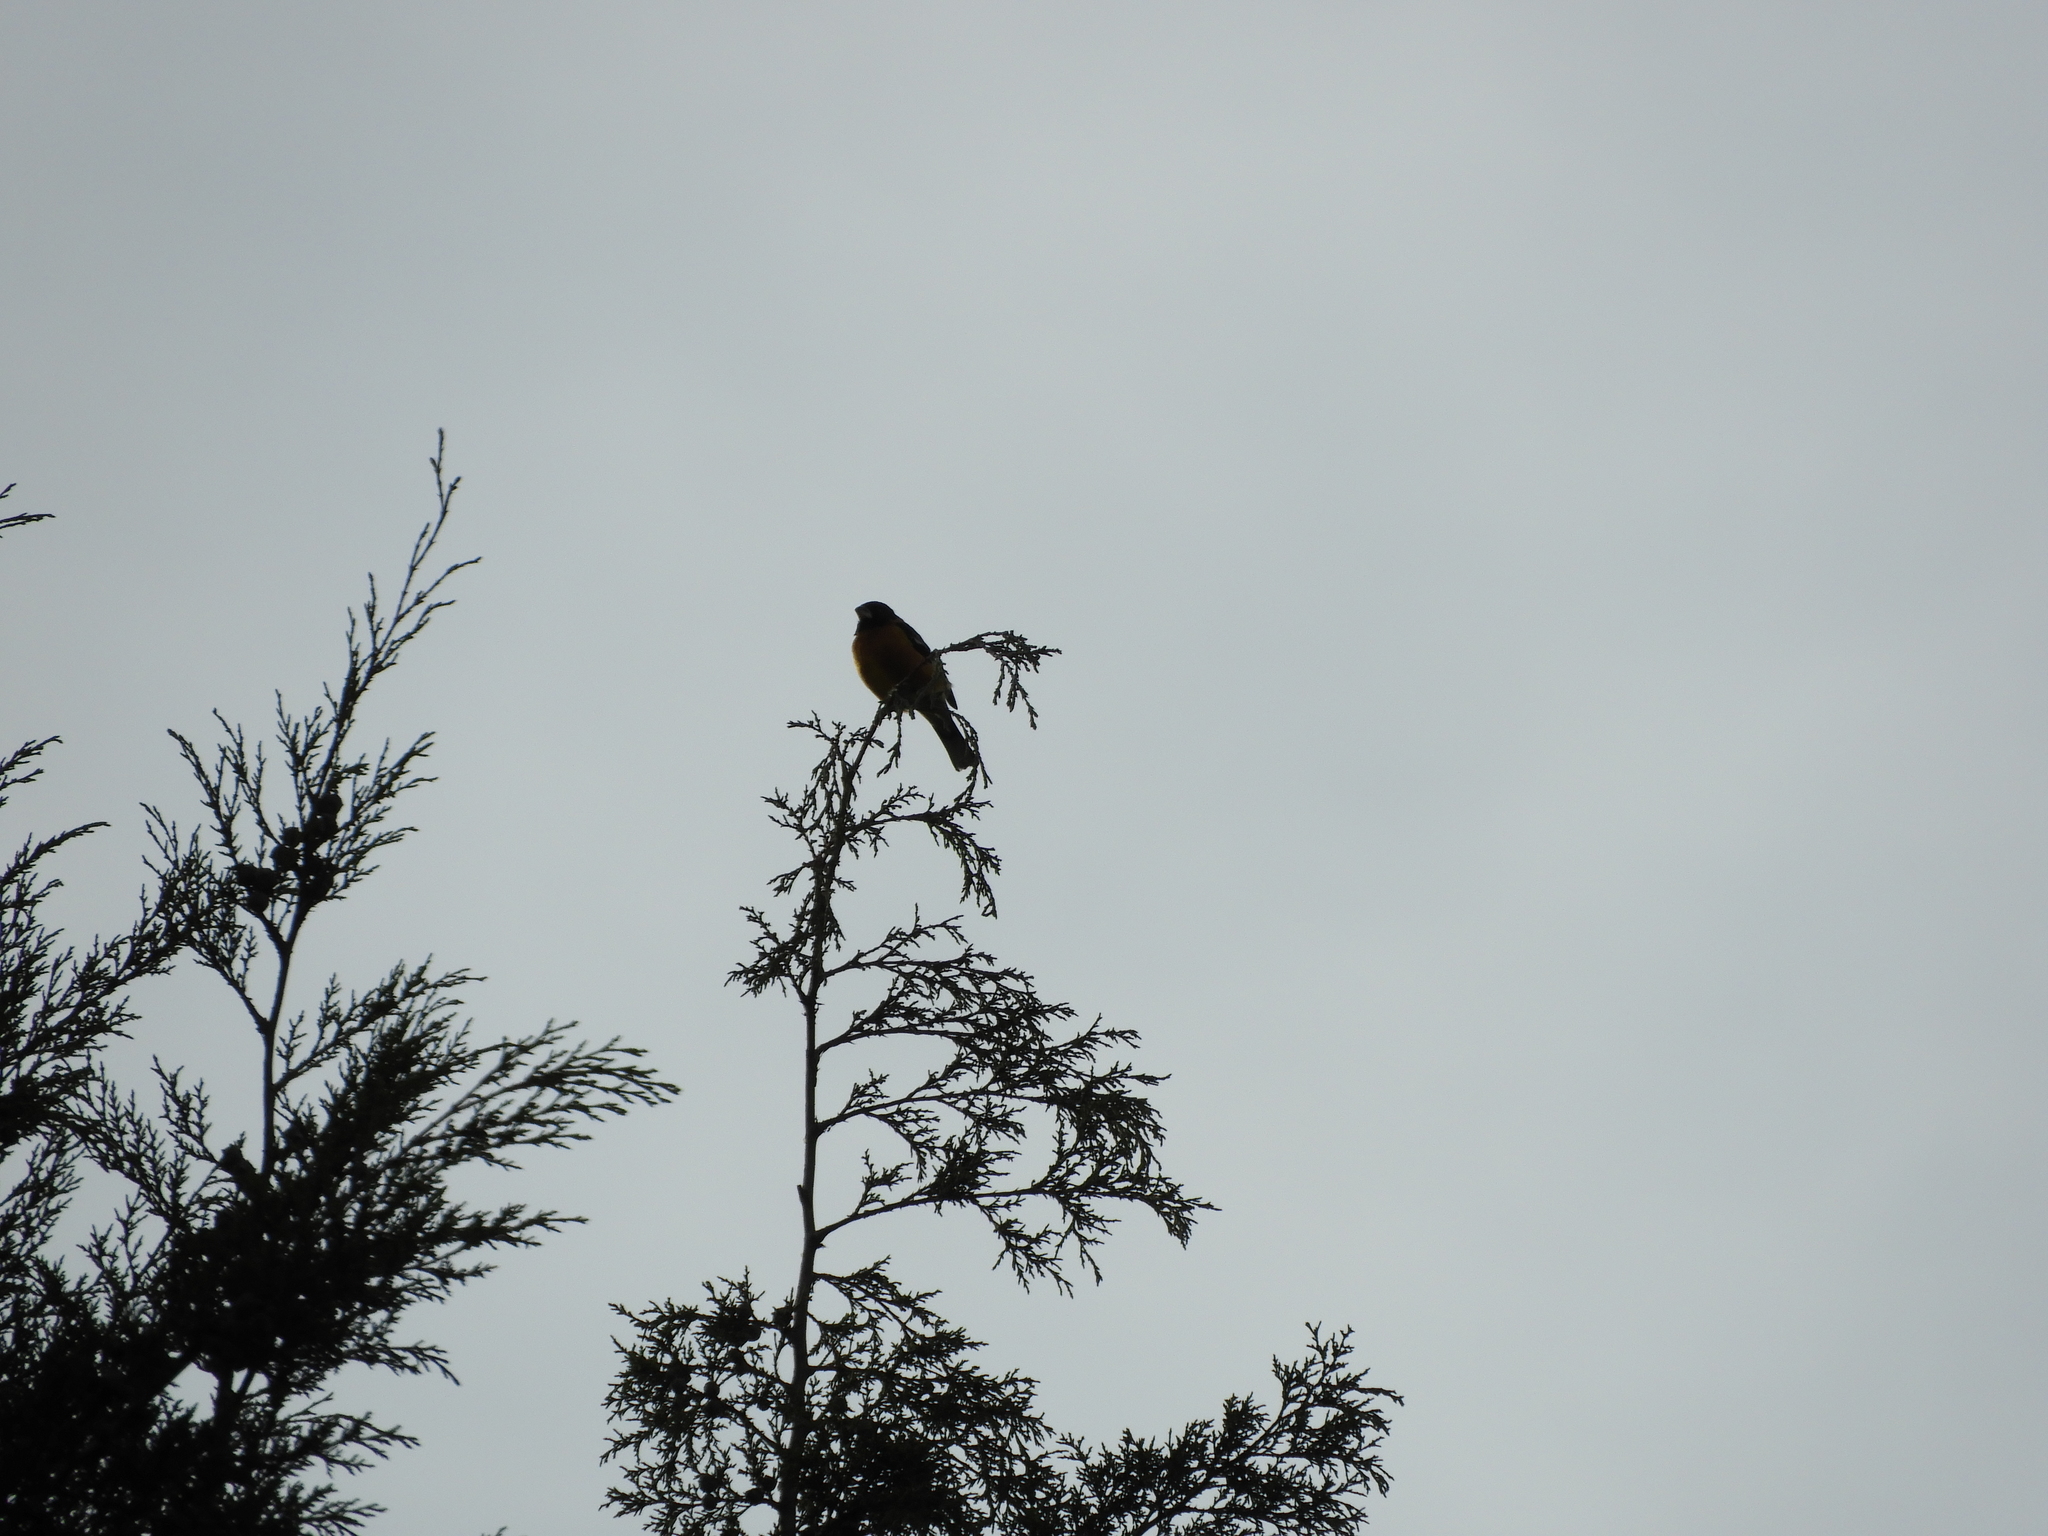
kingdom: Animalia
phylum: Chordata
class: Aves
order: Passeriformes
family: Cardinalidae
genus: Pheucticus
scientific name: Pheucticus melanocephalus
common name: Black-headed grosbeak
